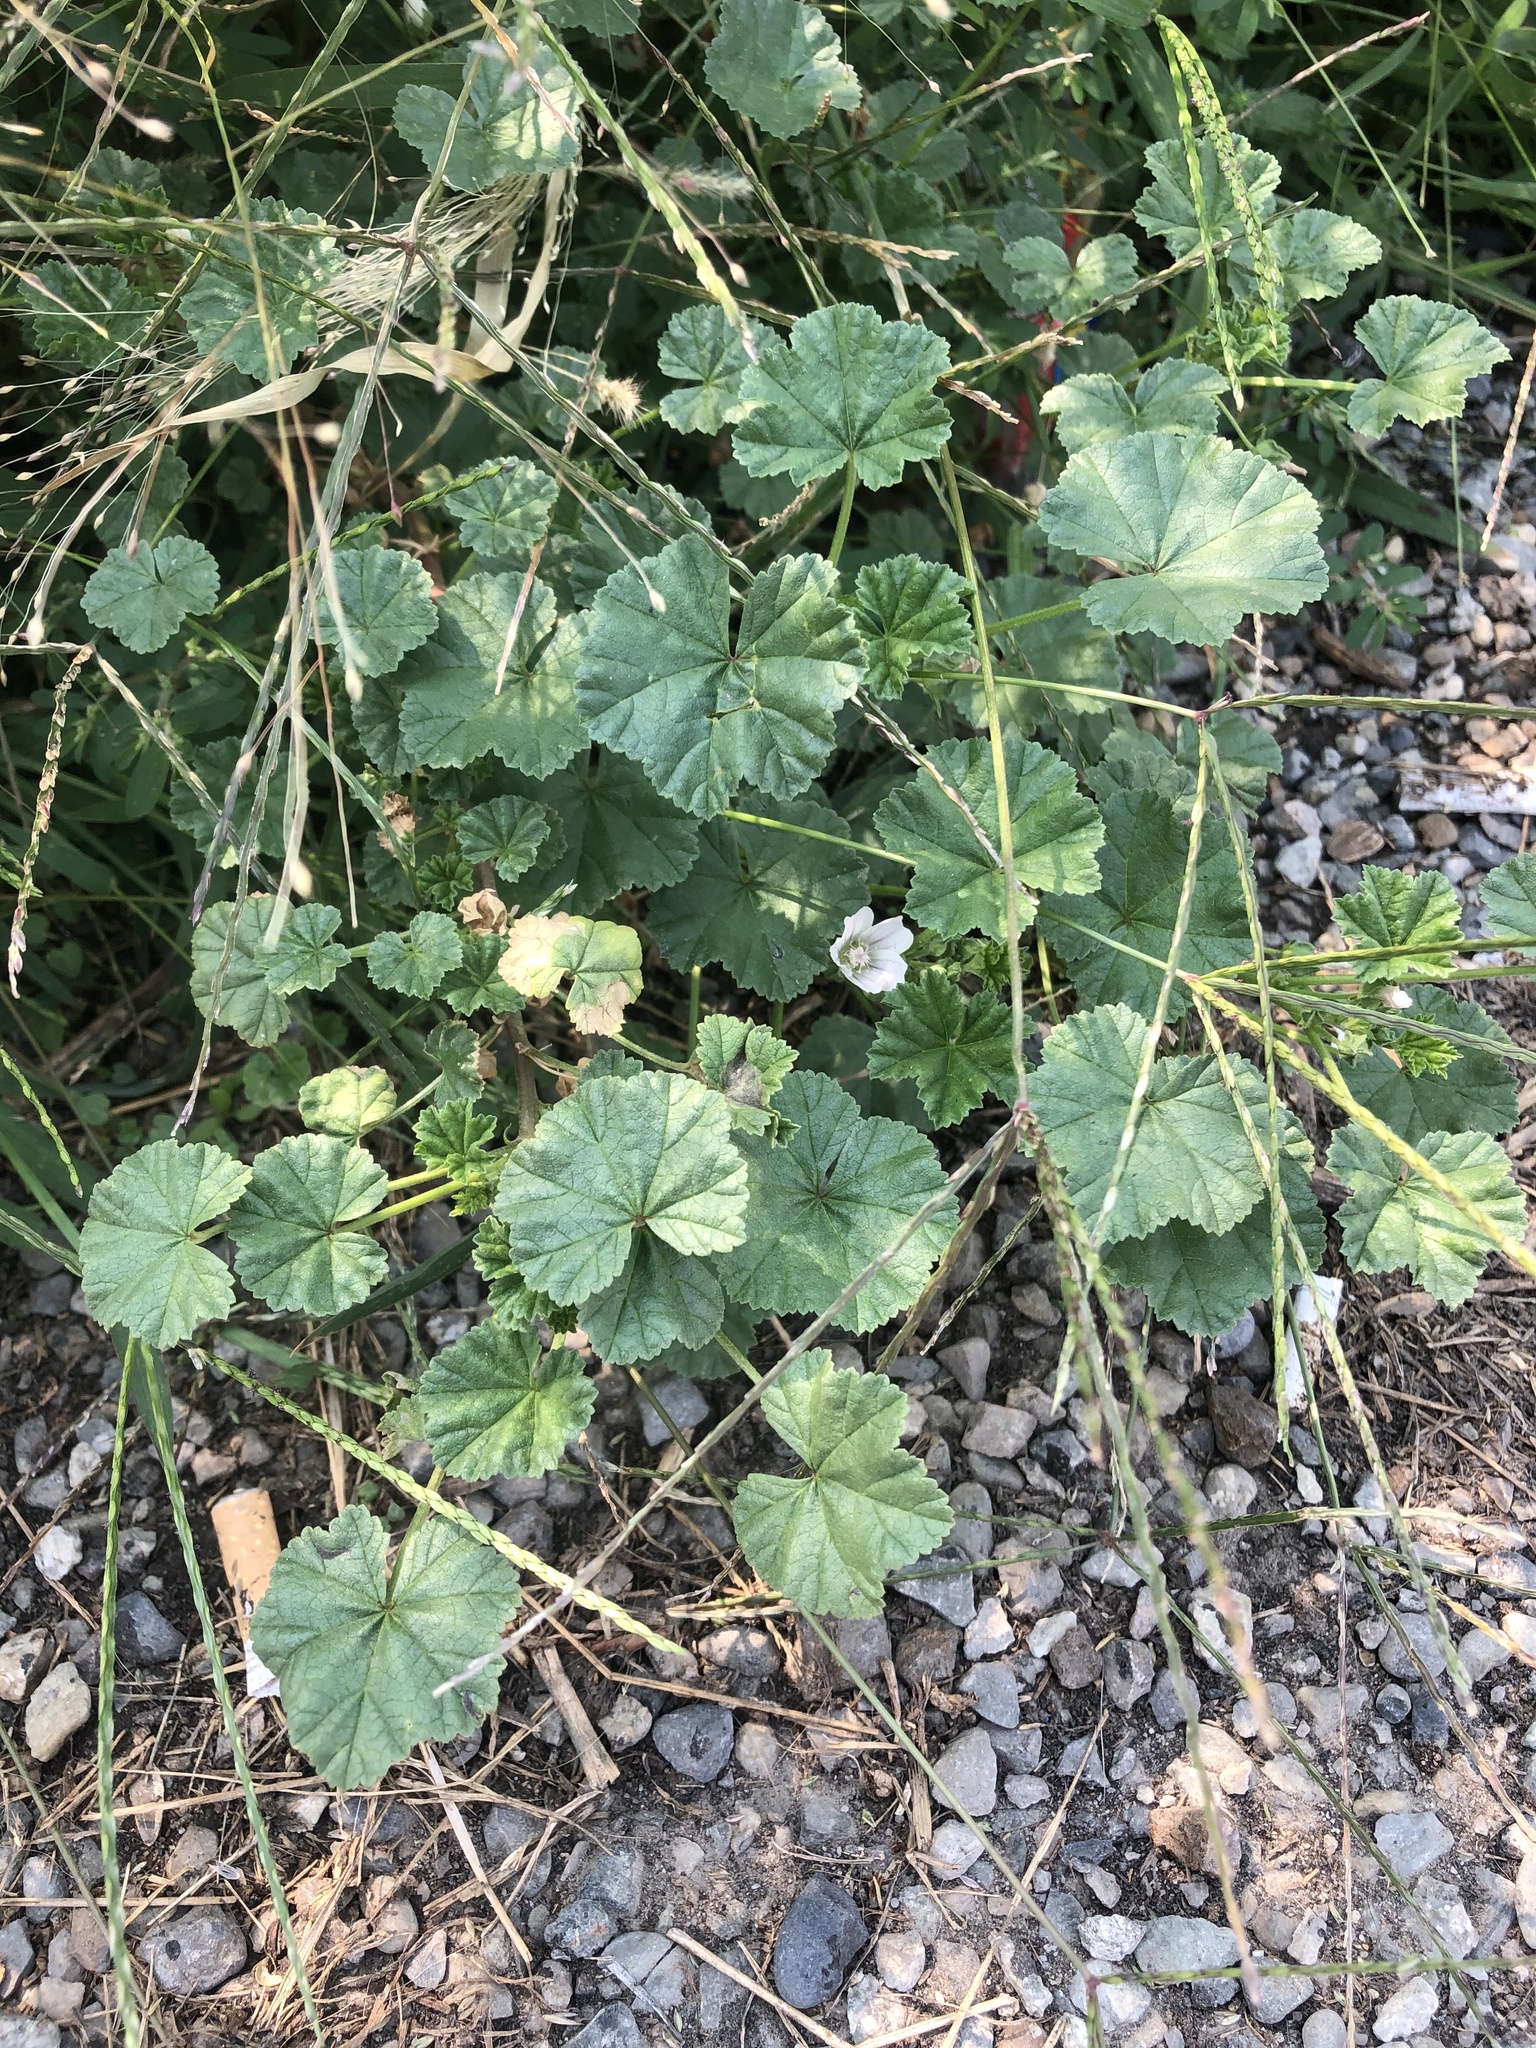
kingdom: Plantae
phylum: Tracheophyta
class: Magnoliopsida
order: Malvales
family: Malvaceae
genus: Malva
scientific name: Malva neglecta
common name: Common mallow
